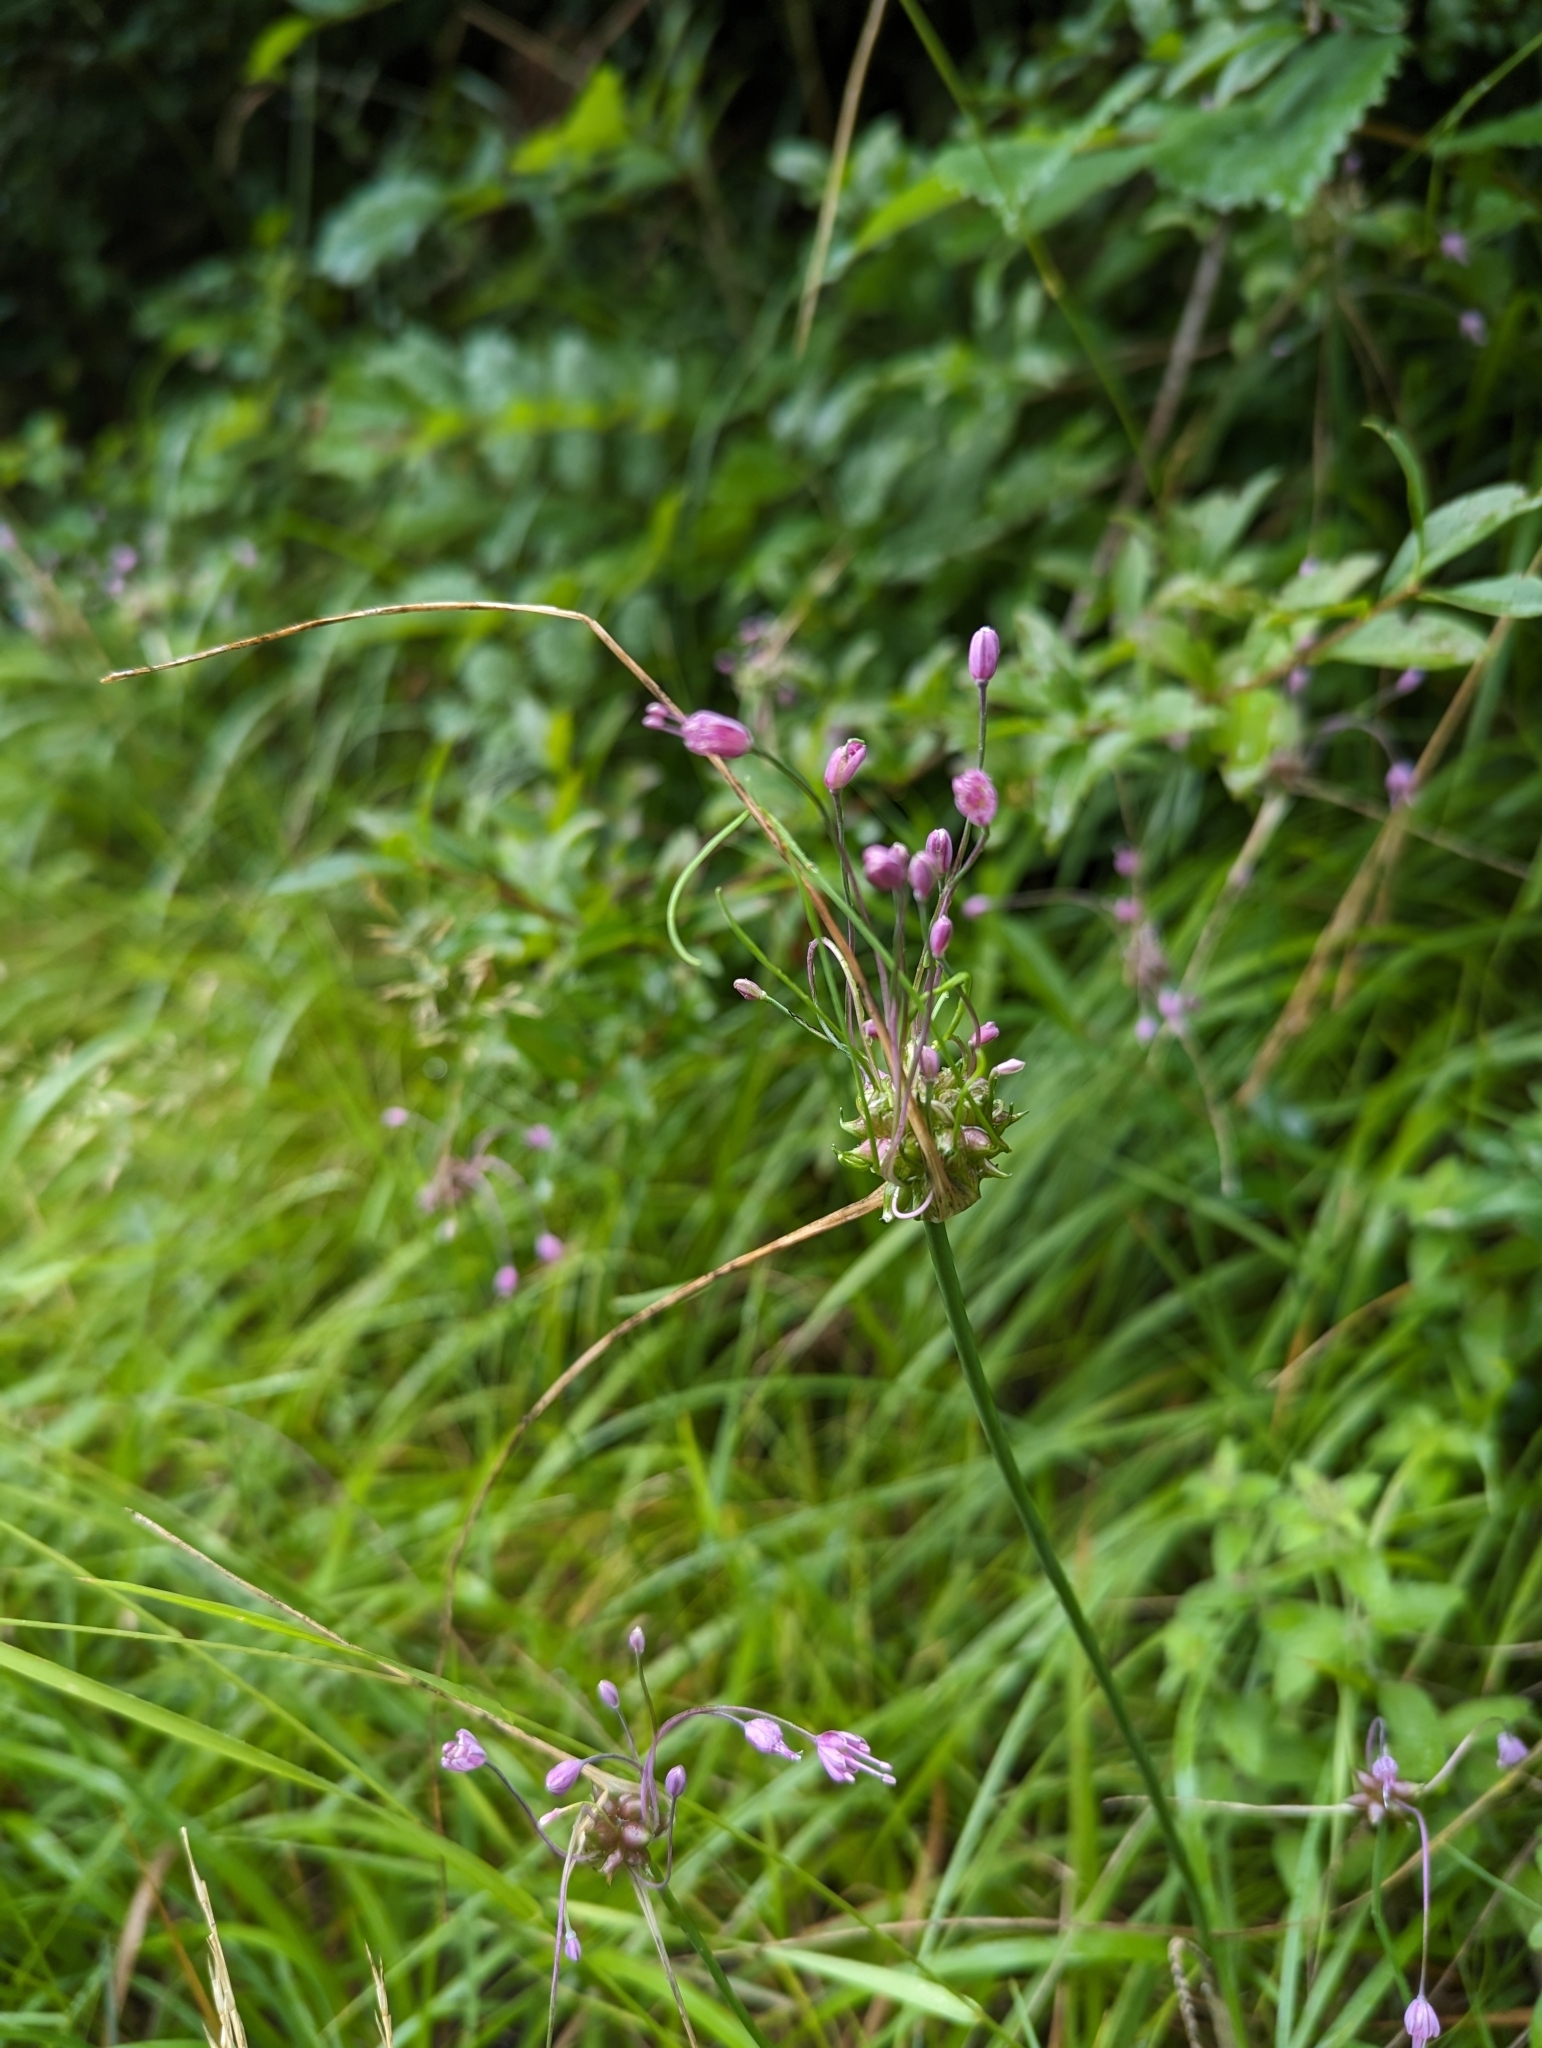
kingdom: Plantae
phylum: Tracheophyta
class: Liliopsida
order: Asparagales
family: Amaryllidaceae
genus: Allium
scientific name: Allium carinatum
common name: Keeled garlic
